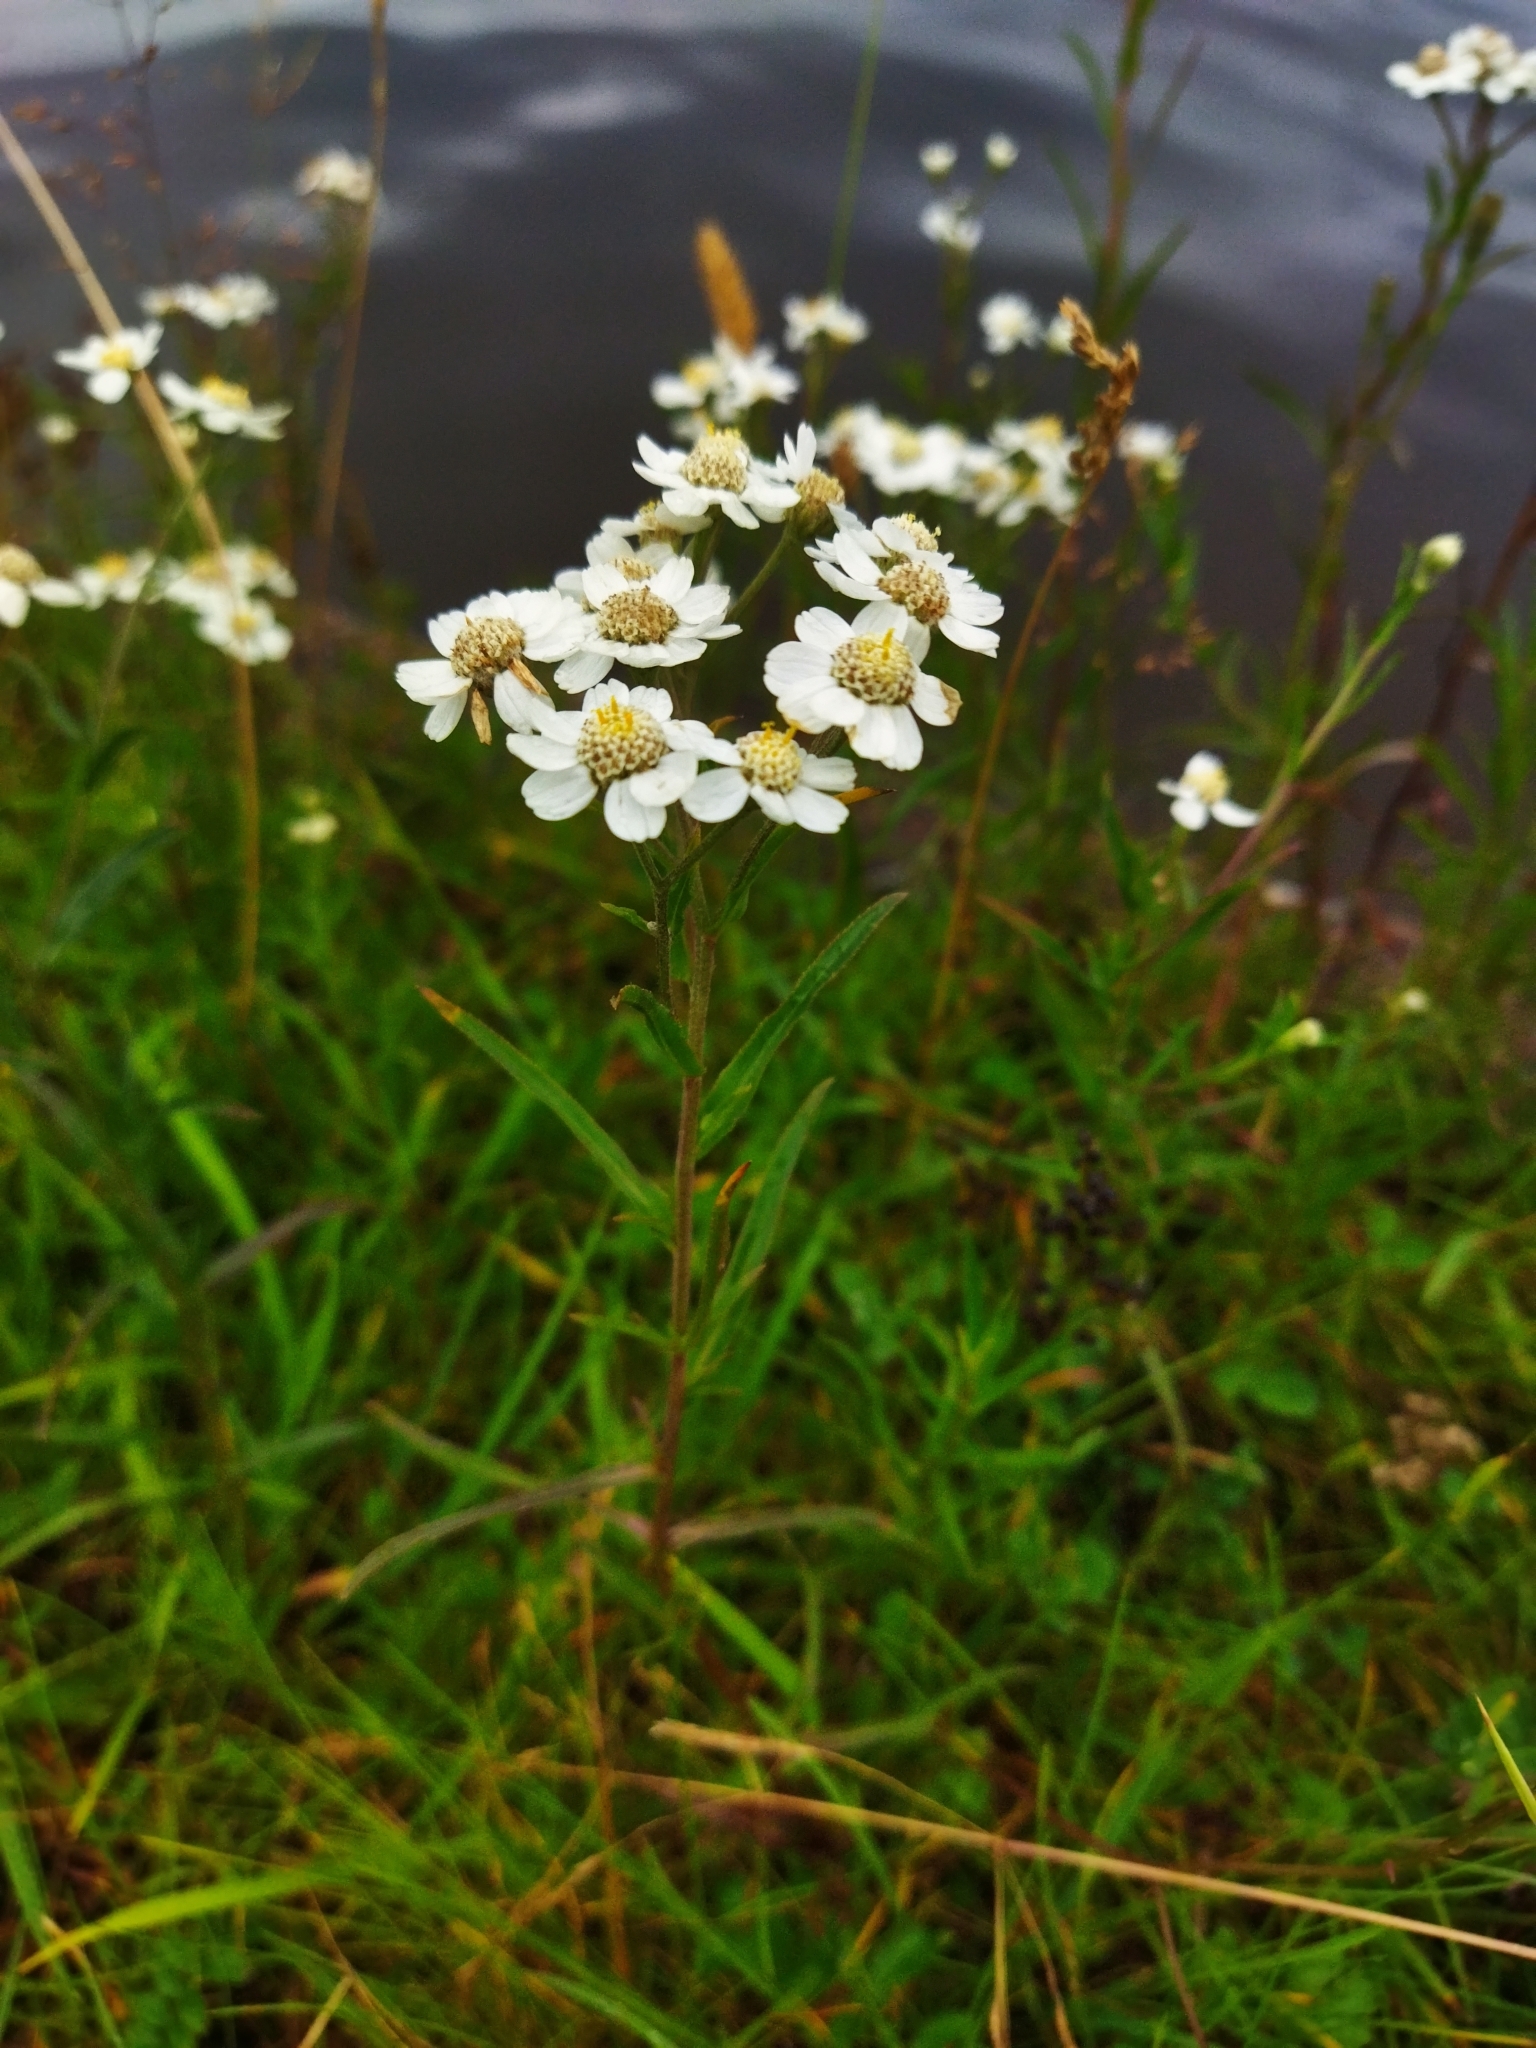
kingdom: Plantae
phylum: Tracheophyta
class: Magnoliopsida
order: Asterales
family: Asteraceae
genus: Achillea
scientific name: Achillea ptarmica
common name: Sneezeweed
